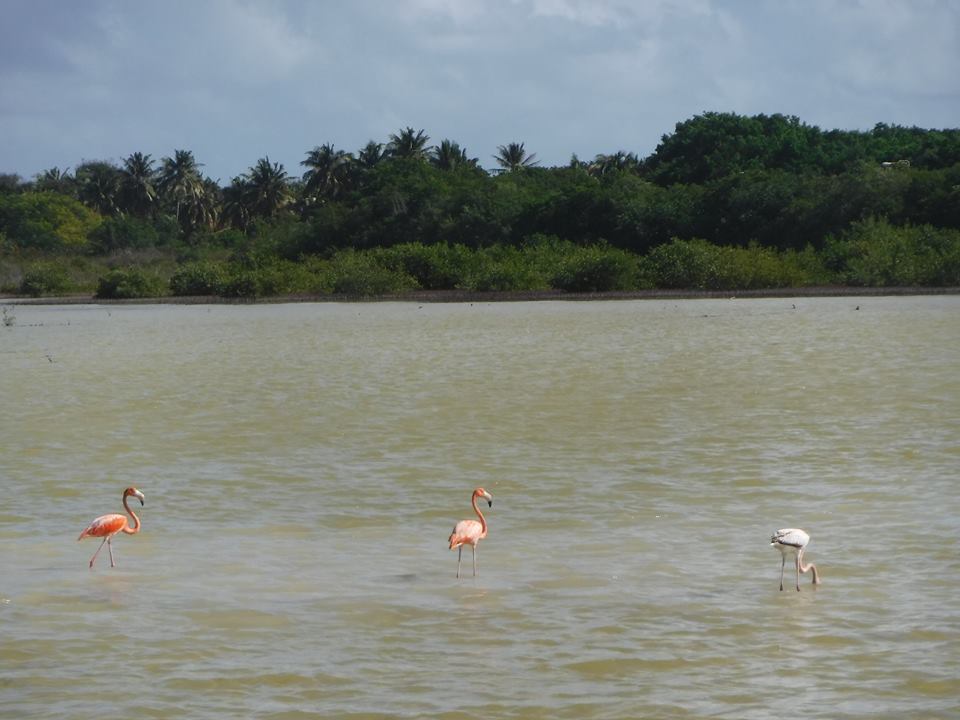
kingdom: Animalia
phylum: Chordata
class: Aves
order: Phoenicopteriformes
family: Phoenicopteridae
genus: Phoenicopterus
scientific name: Phoenicopterus ruber
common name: American flamingo
